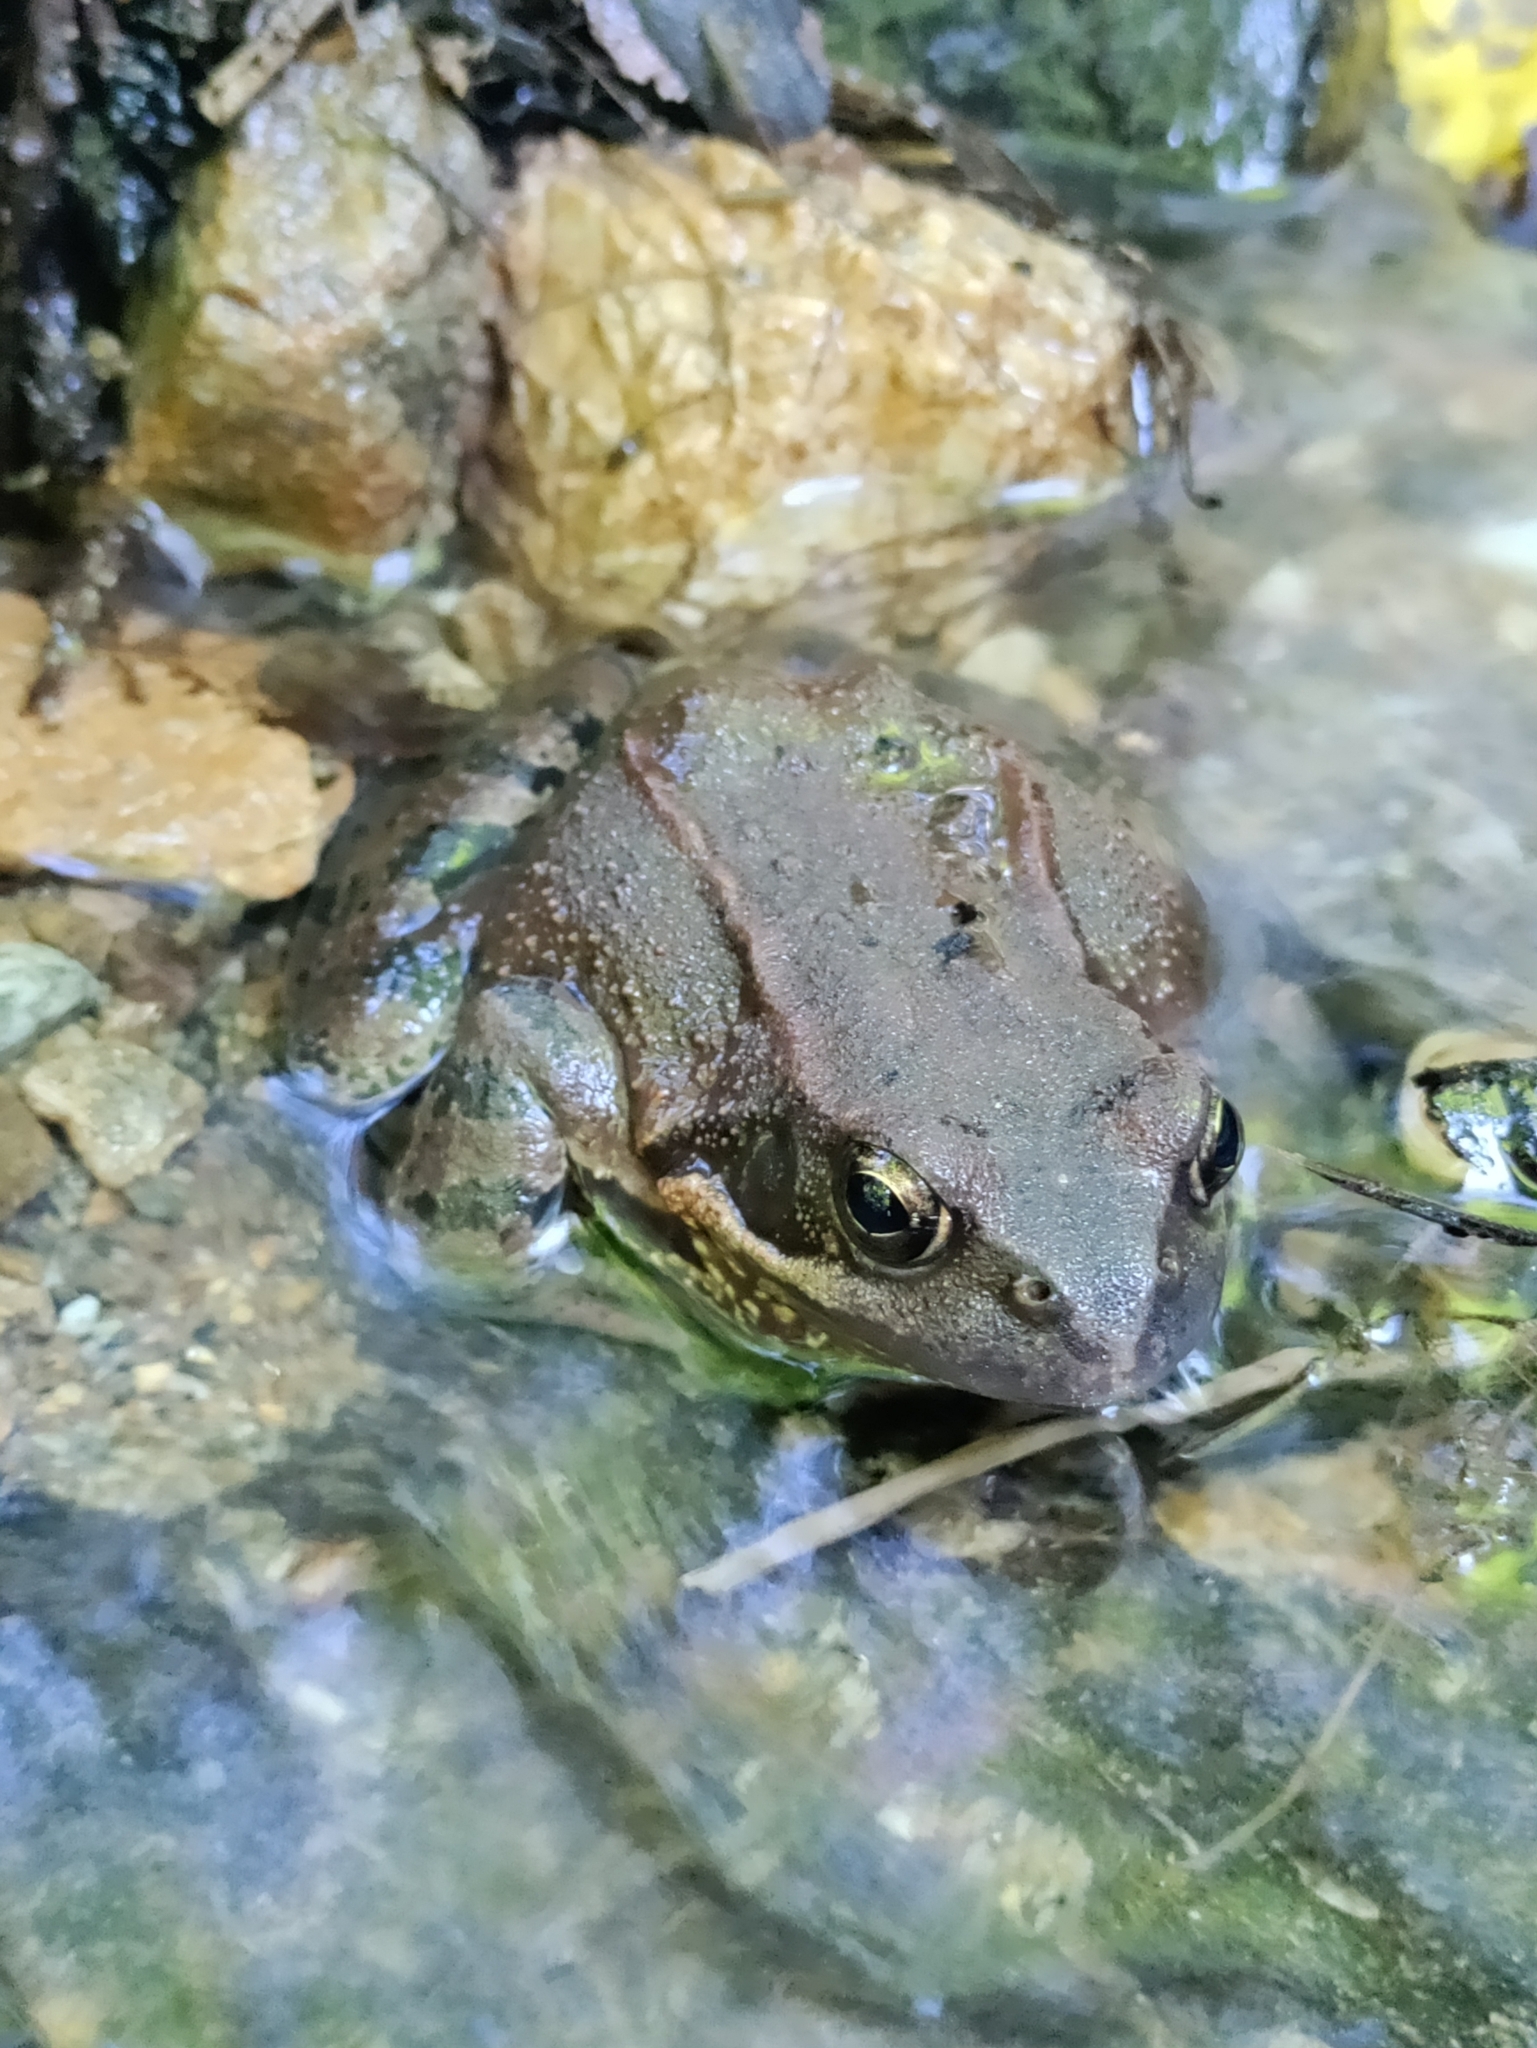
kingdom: Animalia
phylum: Chordata
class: Amphibia
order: Anura
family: Ranidae
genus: Rana
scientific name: Rana temporaria
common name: Common frog
